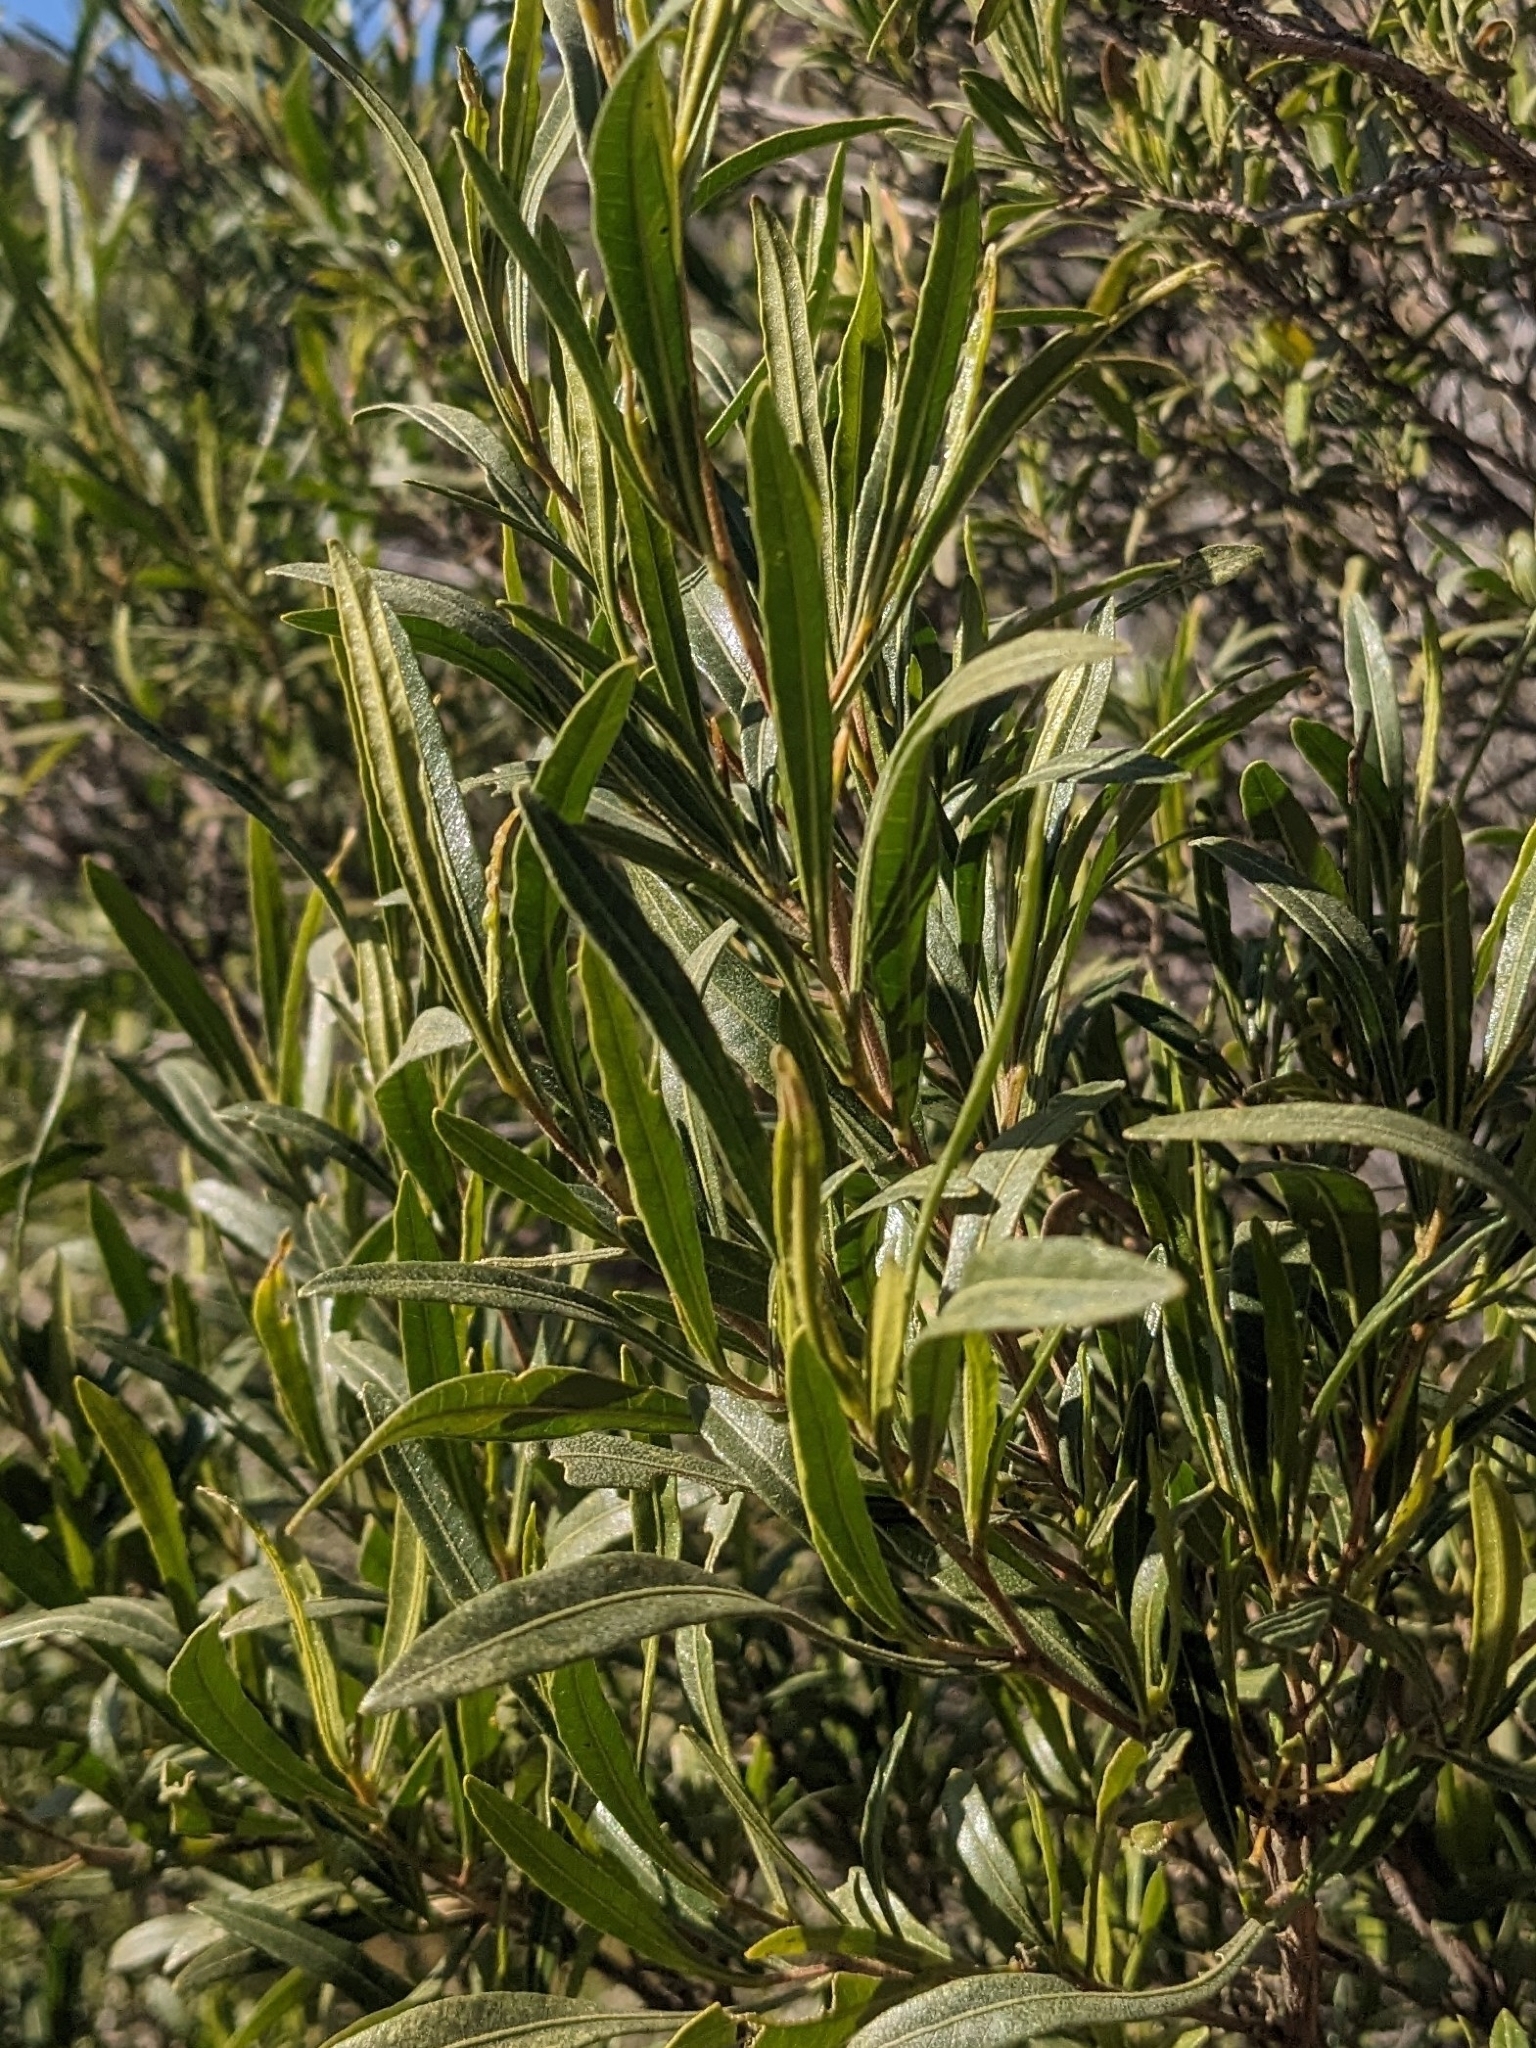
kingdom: Plantae
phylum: Tracheophyta
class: Magnoliopsida
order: Sapindales
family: Sapindaceae
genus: Dodonaea
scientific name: Dodonaea viscosa
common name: Hopbush
